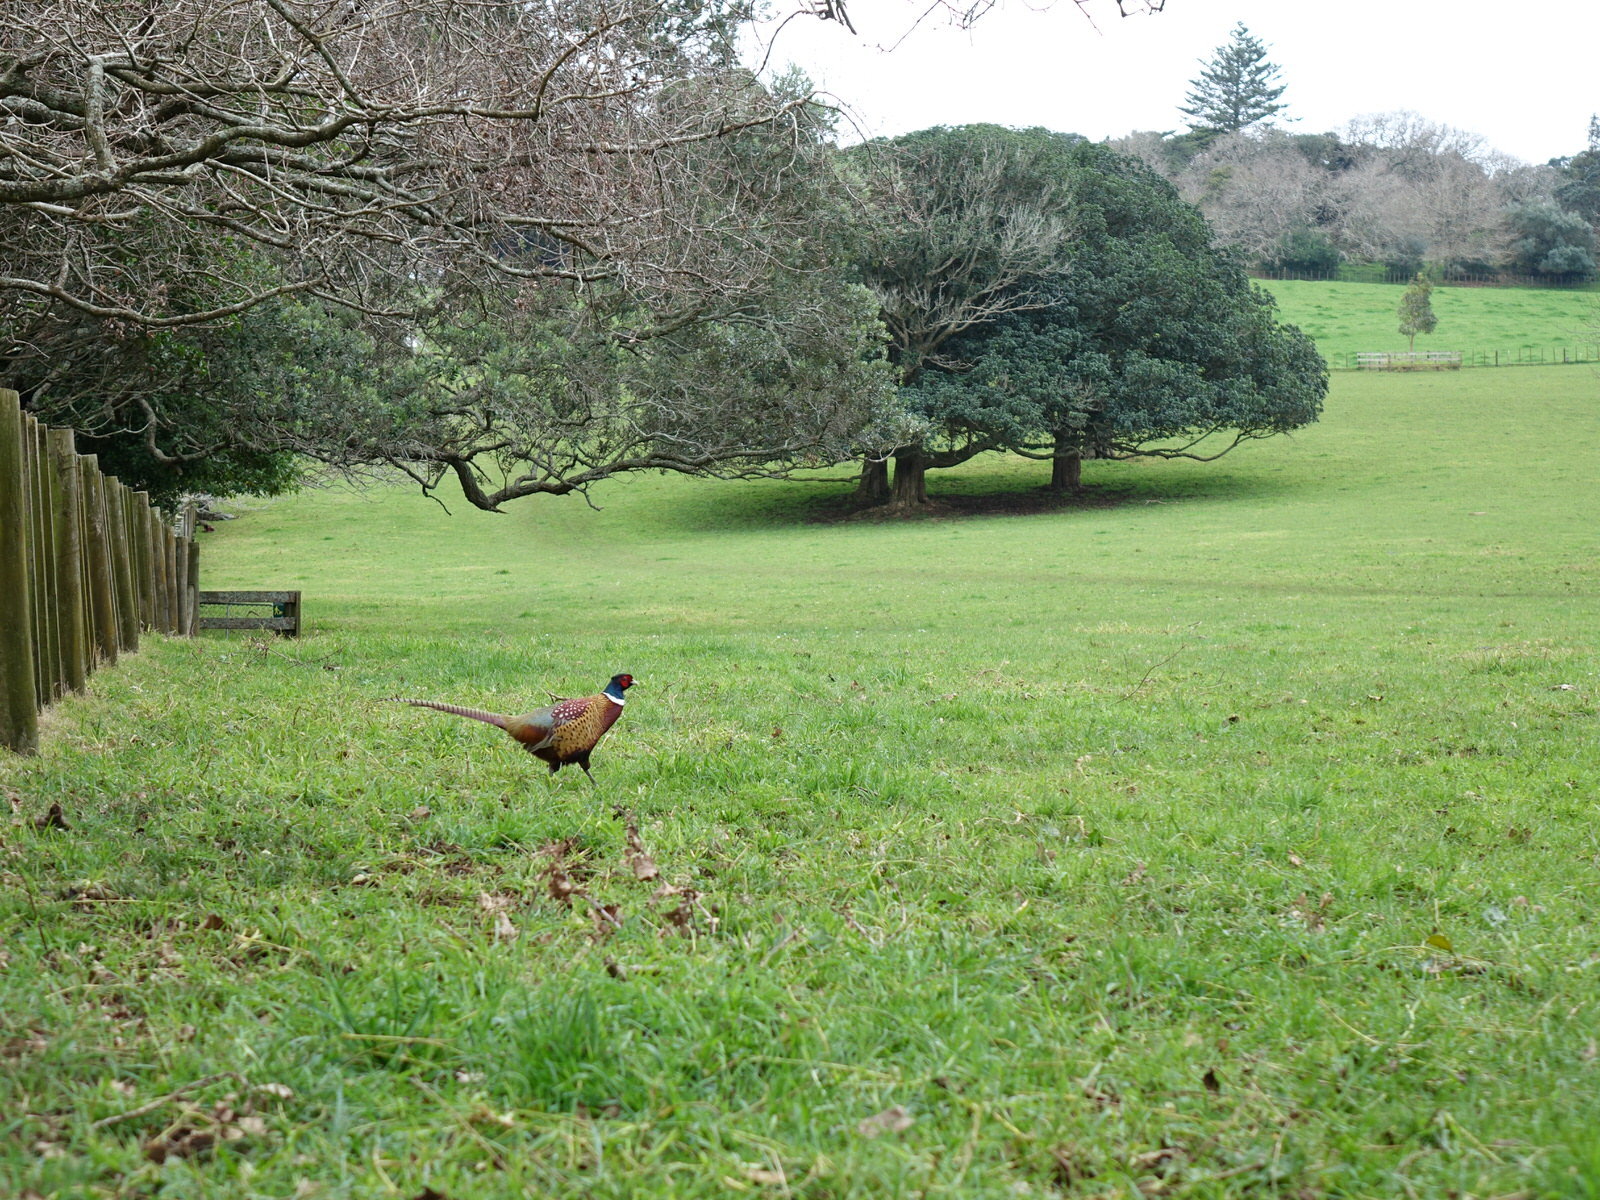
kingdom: Animalia
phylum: Chordata
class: Aves
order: Galliformes
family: Phasianidae
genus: Phasianus
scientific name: Phasianus colchicus
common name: Common pheasant
